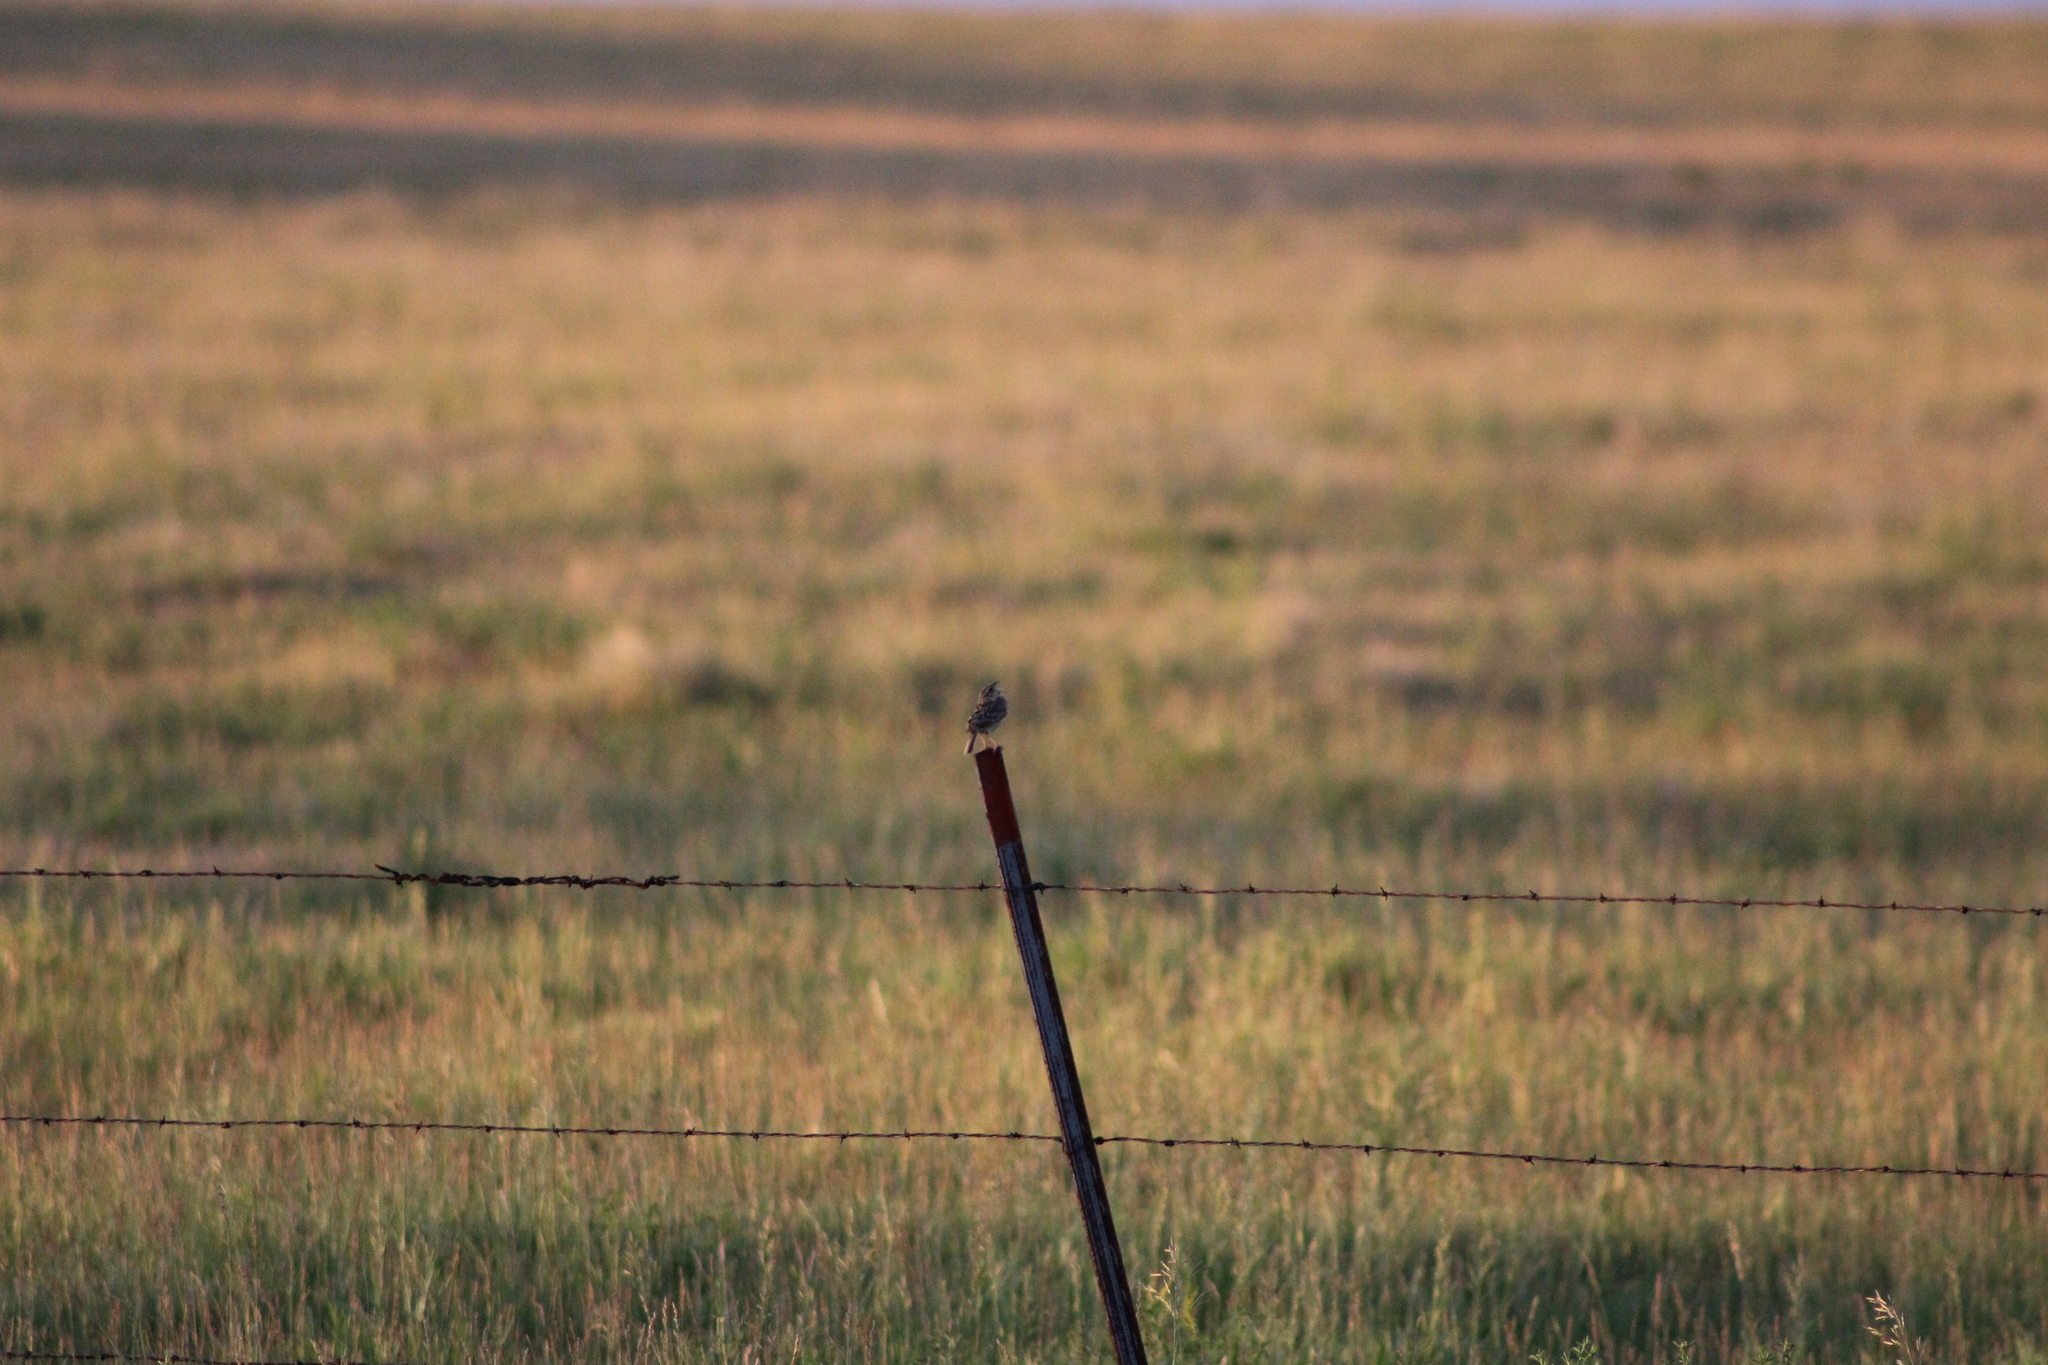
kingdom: Animalia
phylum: Chordata
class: Aves
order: Passeriformes
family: Passerellidae
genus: Ammodramus
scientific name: Ammodramus savannarum
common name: Grasshopper sparrow
